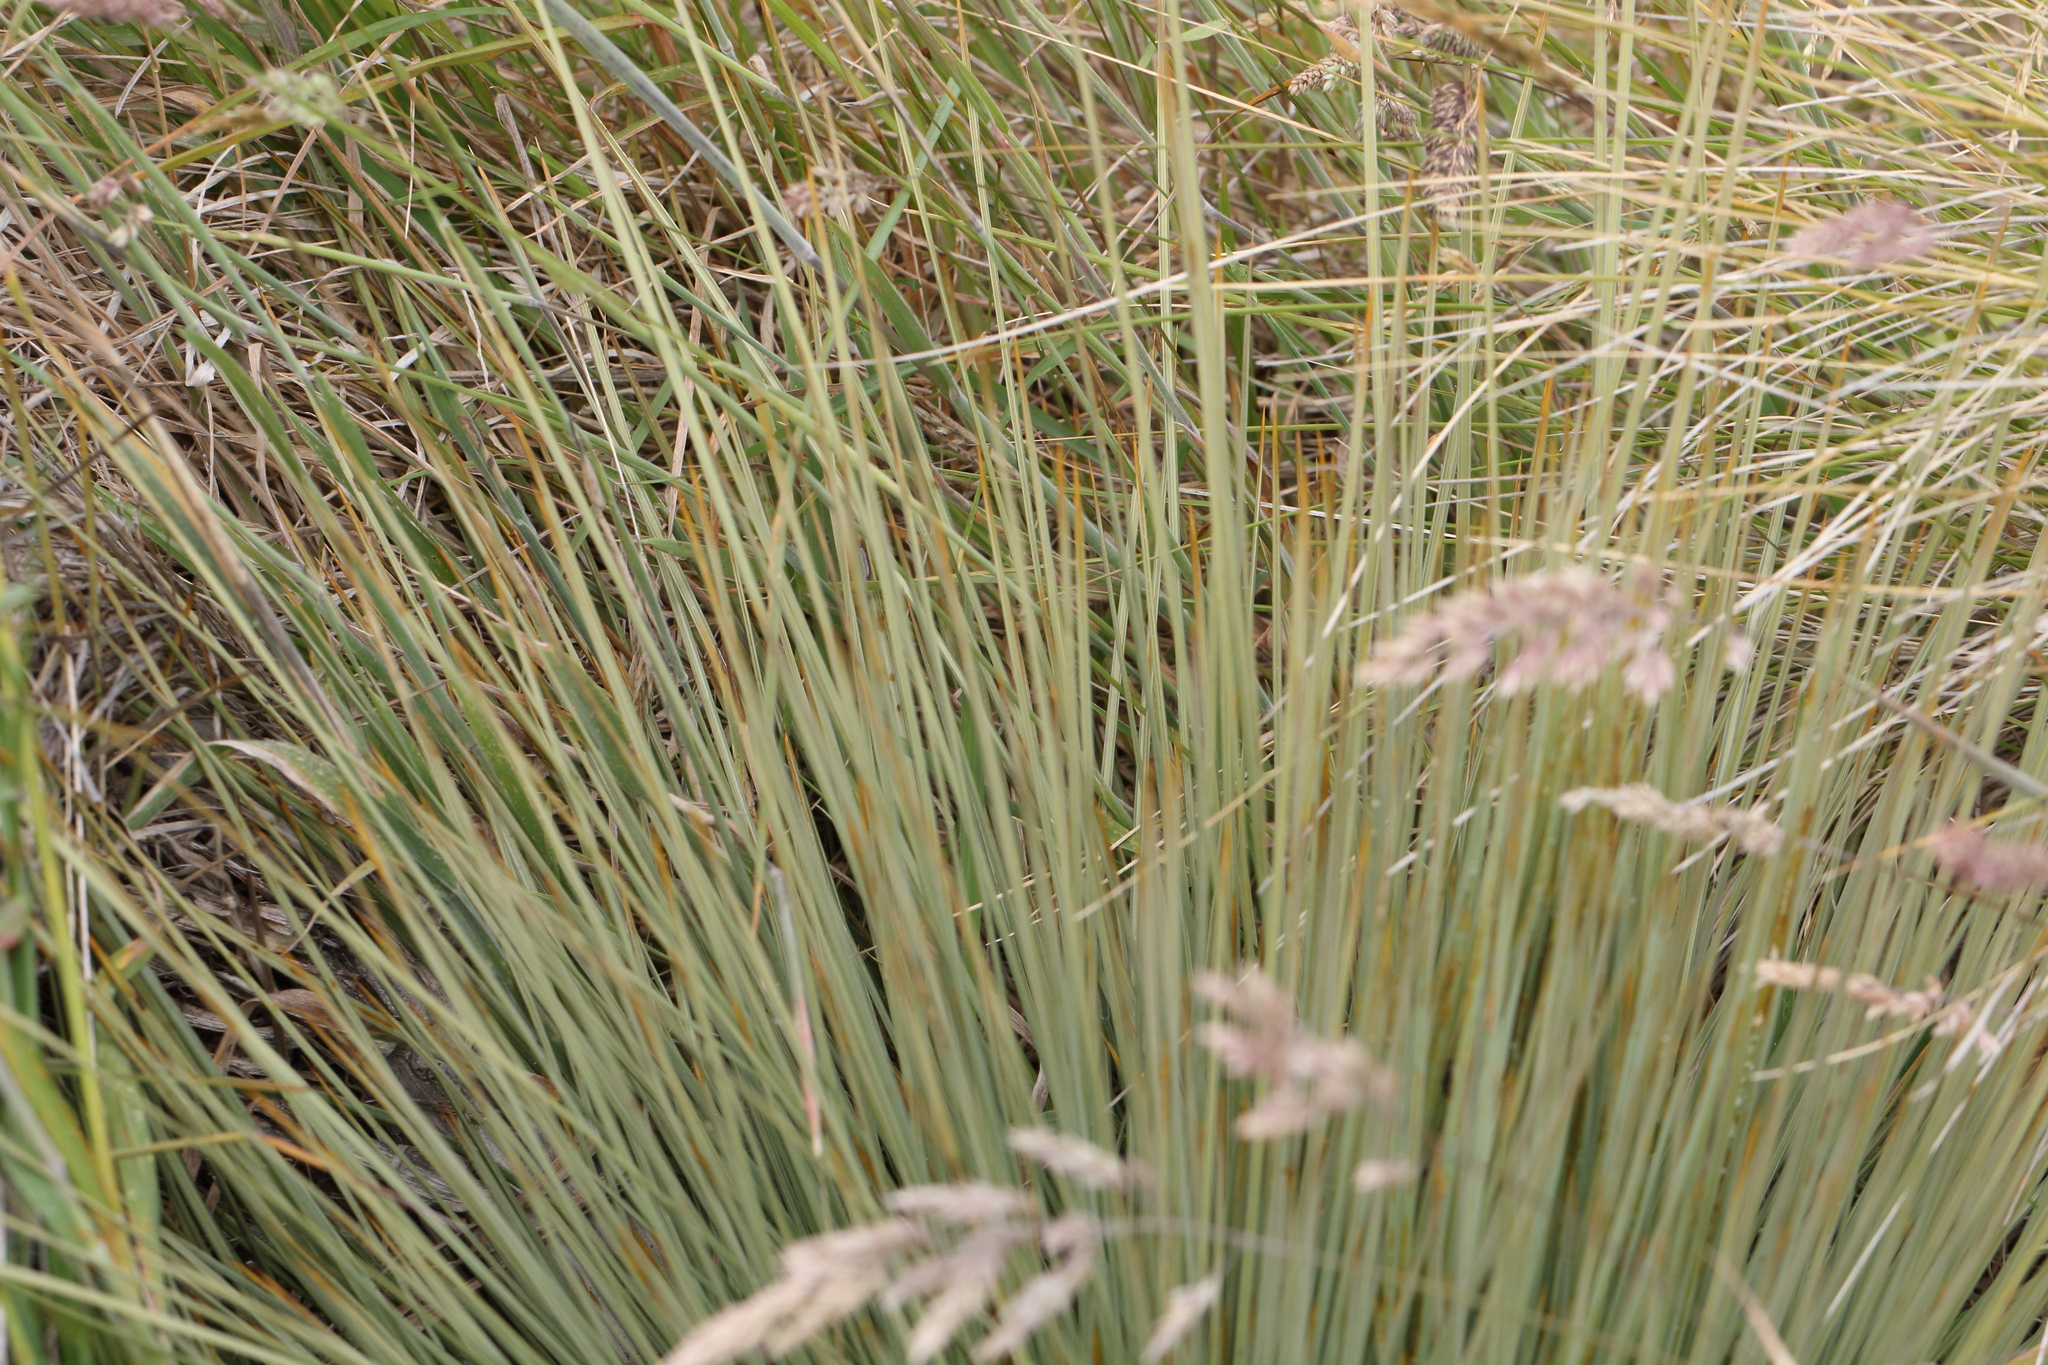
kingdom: Plantae
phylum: Tracheophyta
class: Magnoliopsida
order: Apiales
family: Apiaceae
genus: Aciphylla
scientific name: Aciphylla subflabellata
